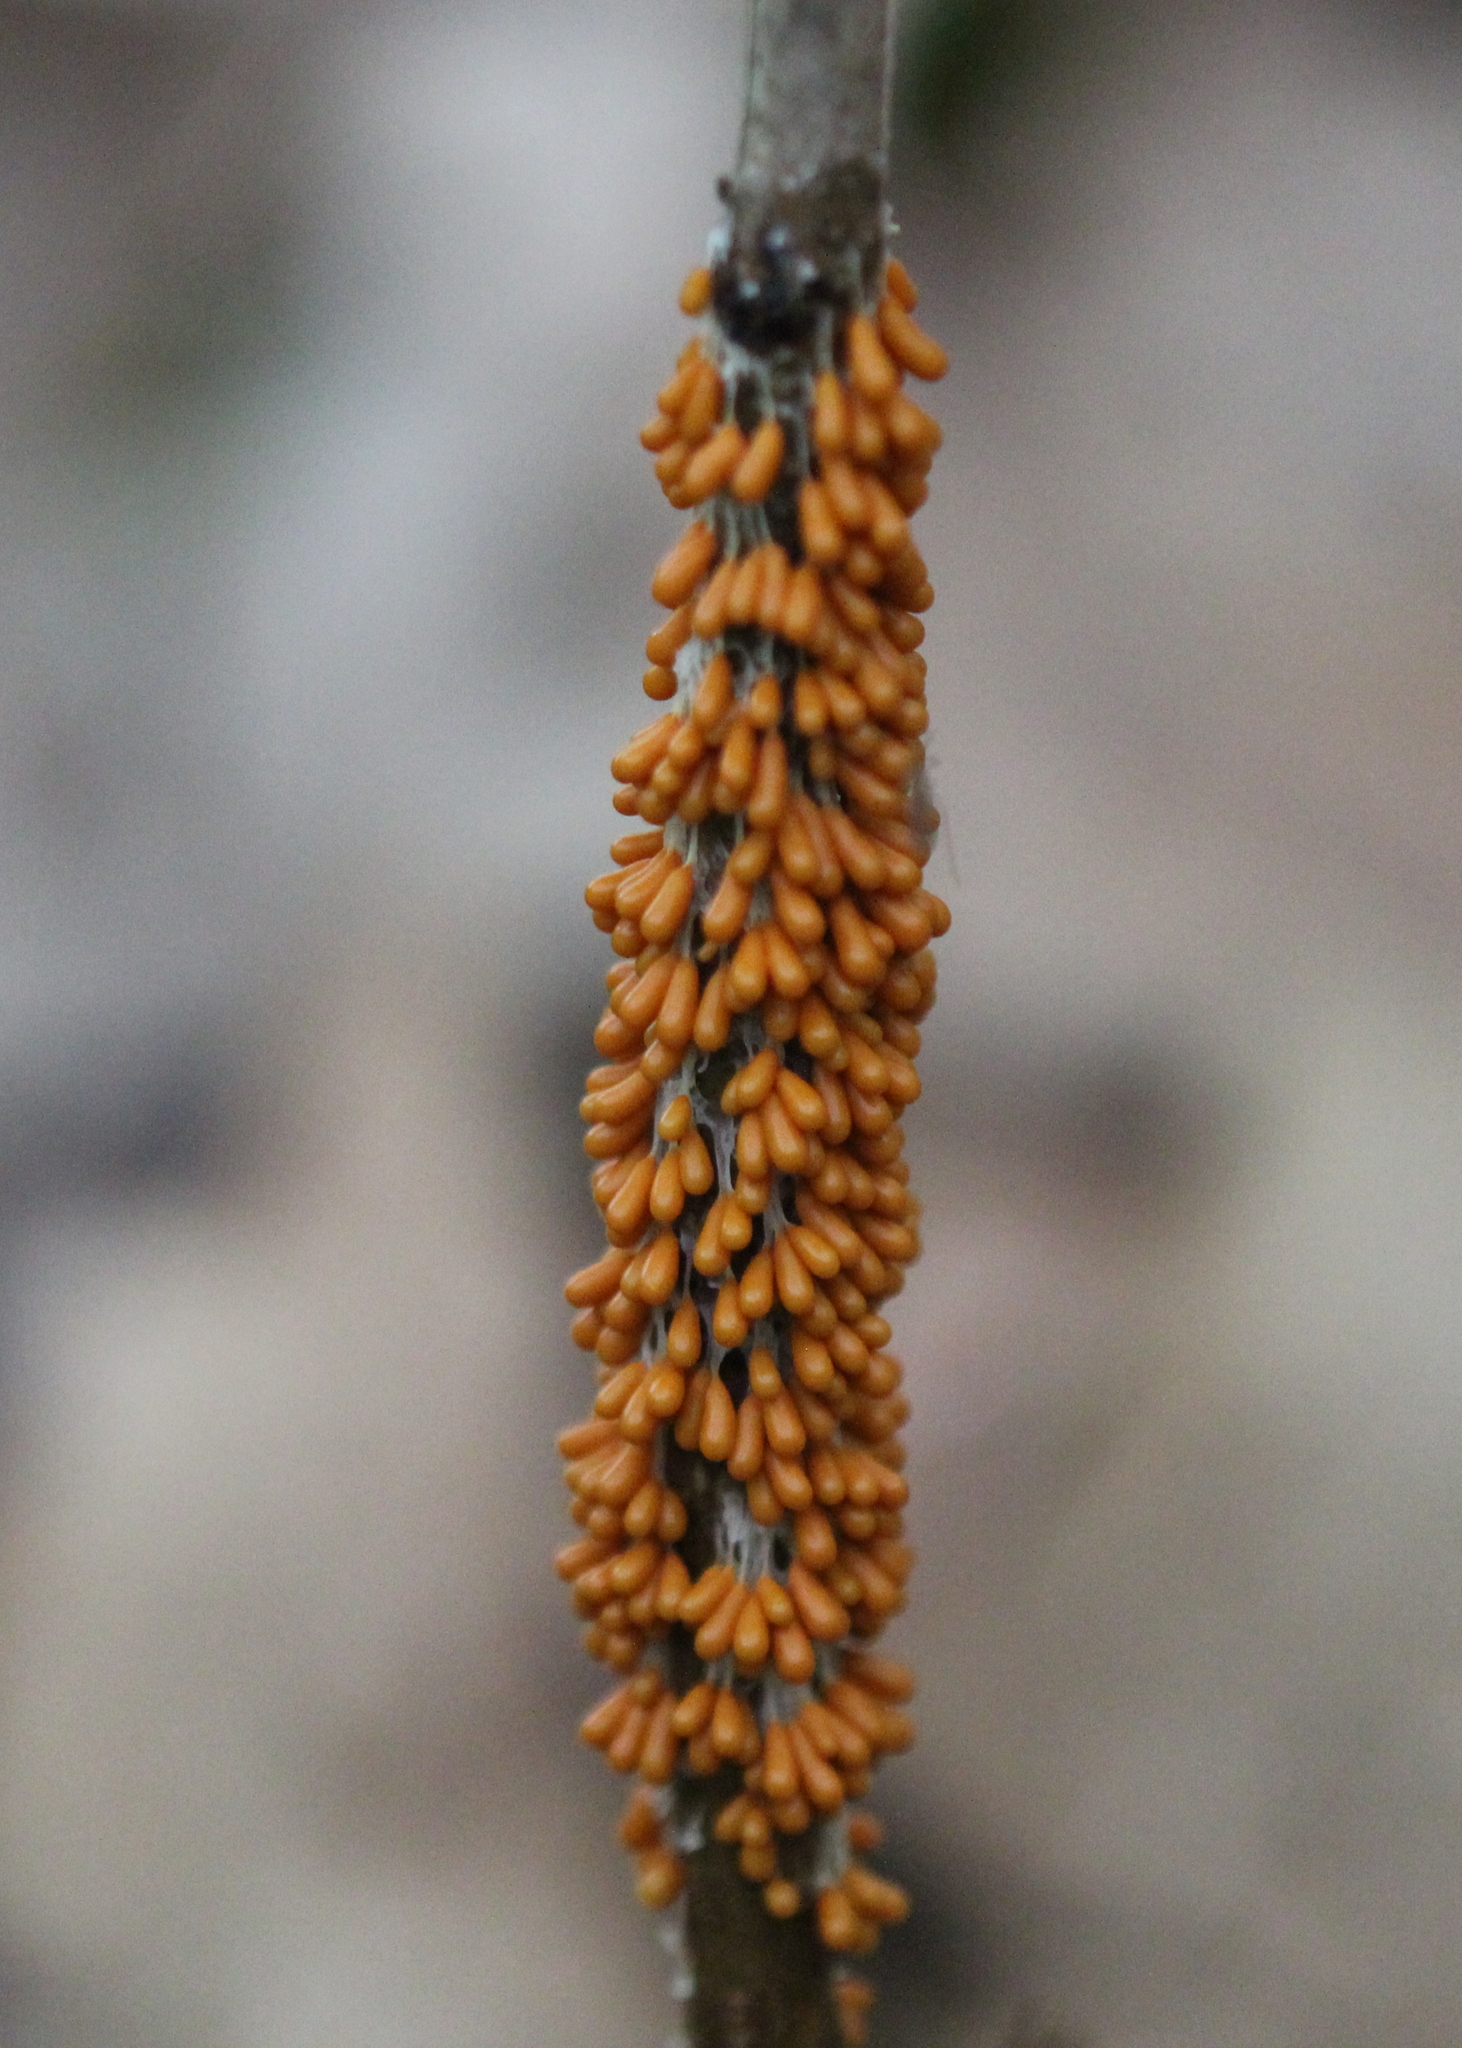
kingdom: Protozoa
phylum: Mycetozoa
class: Myxomycetes
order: Physarales
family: Physaraceae
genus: Leocarpus
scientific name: Leocarpus fragilis
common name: Insect-egg slime
